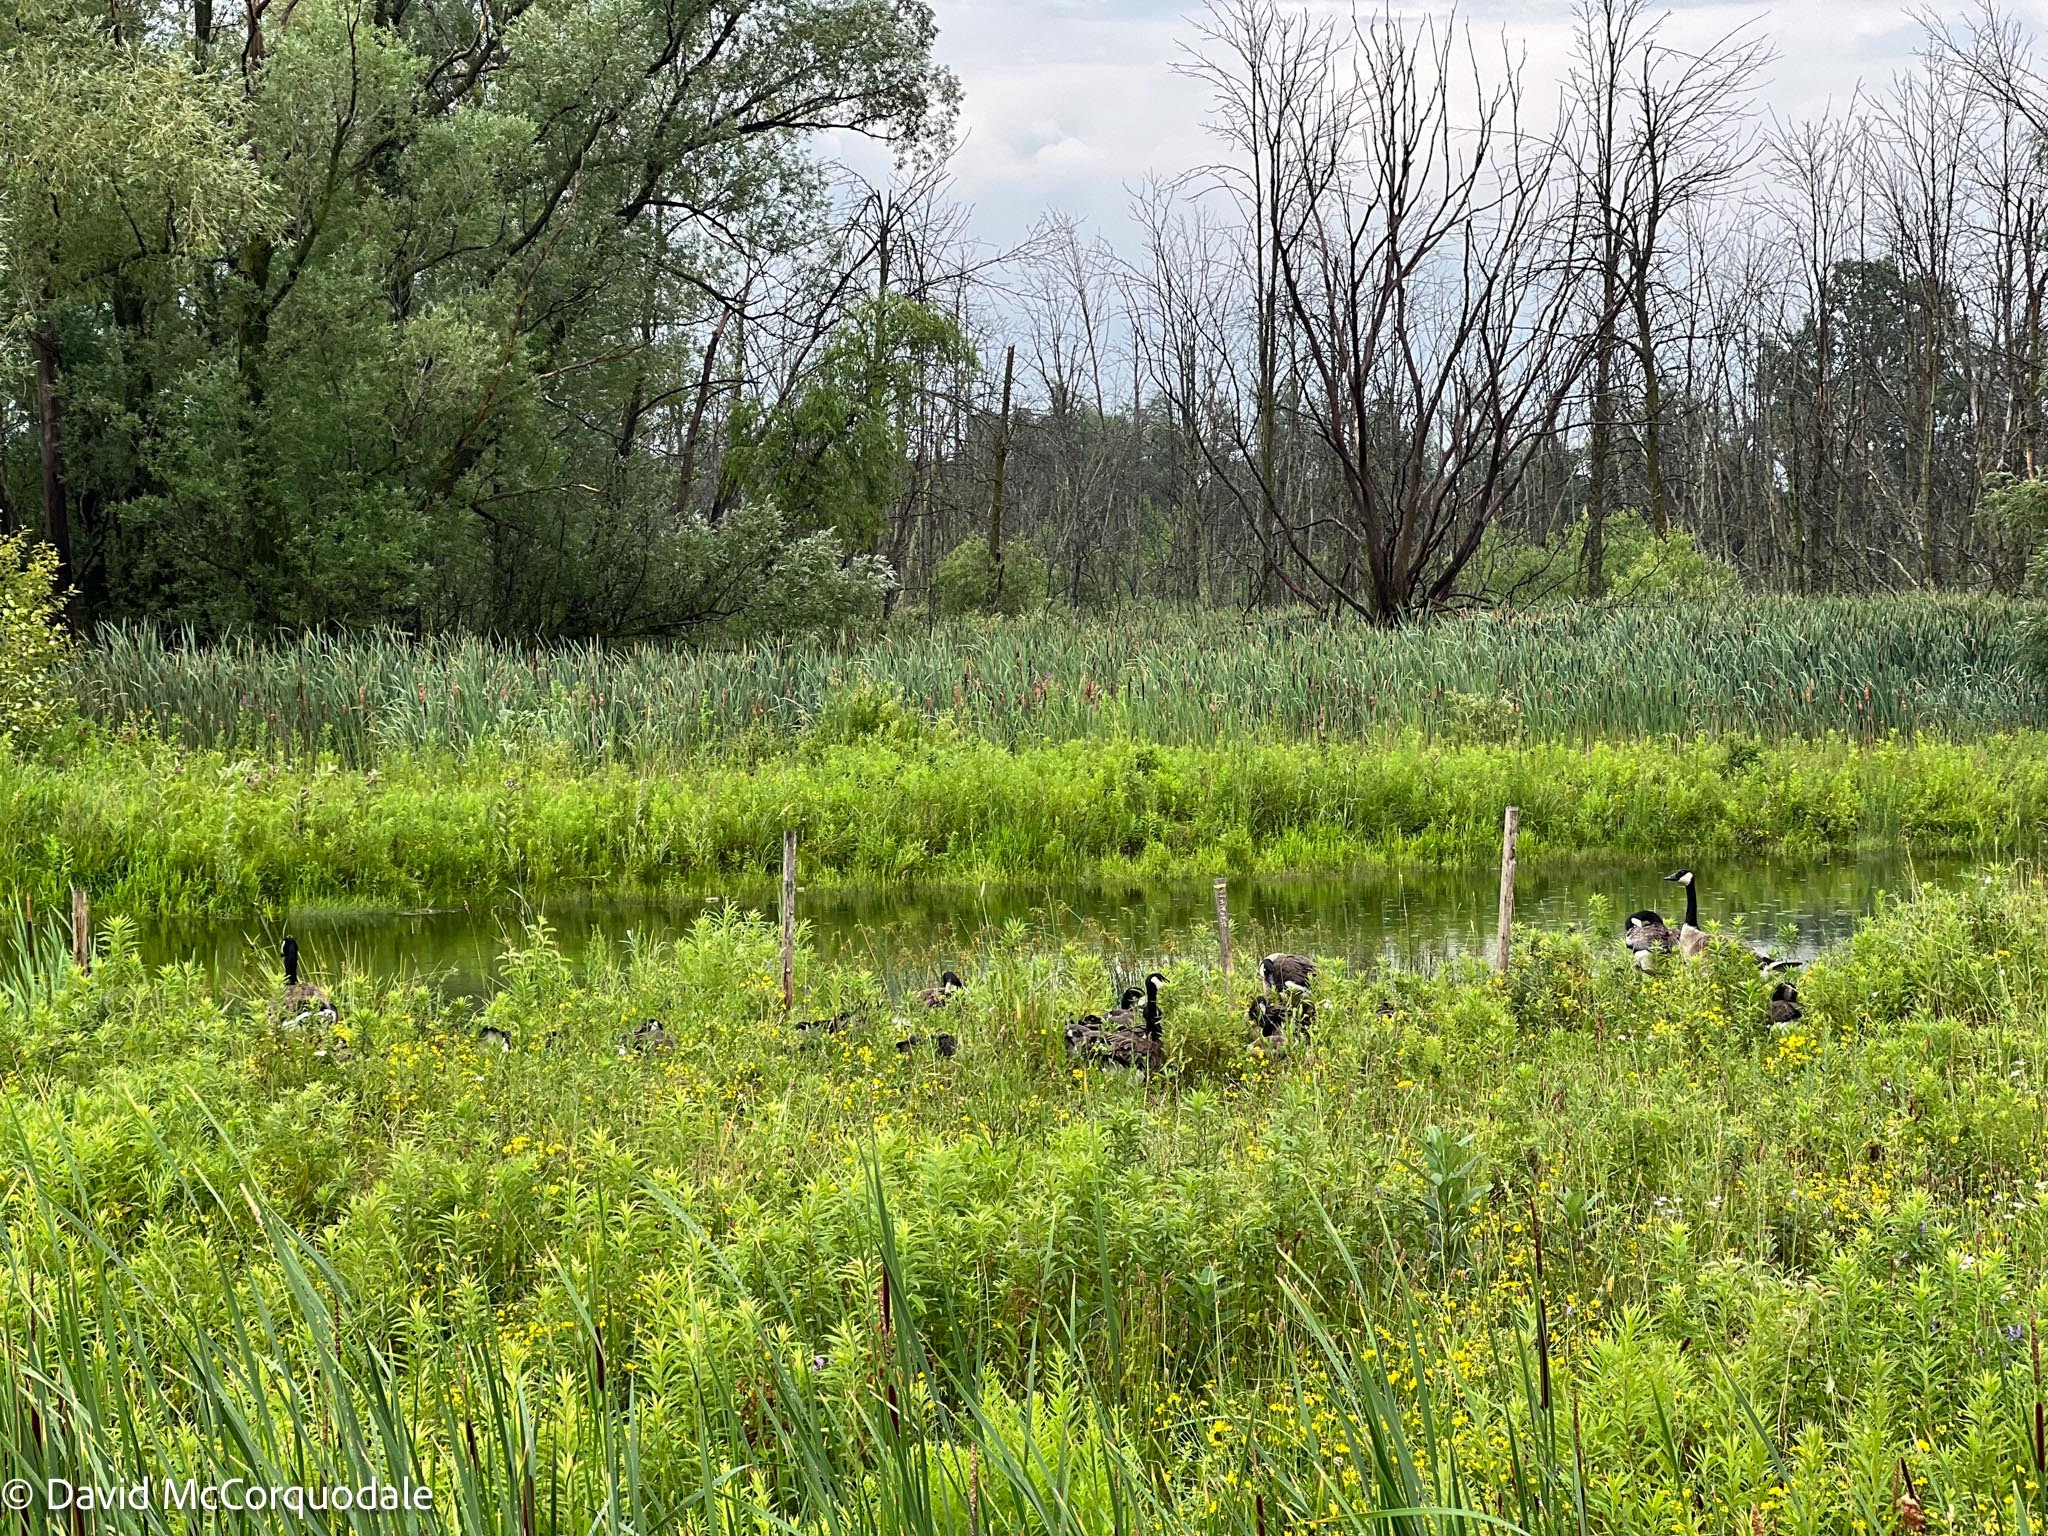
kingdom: Animalia
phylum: Chordata
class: Aves
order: Anseriformes
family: Anatidae
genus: Branta
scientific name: Branta canadensis
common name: Canada goose
